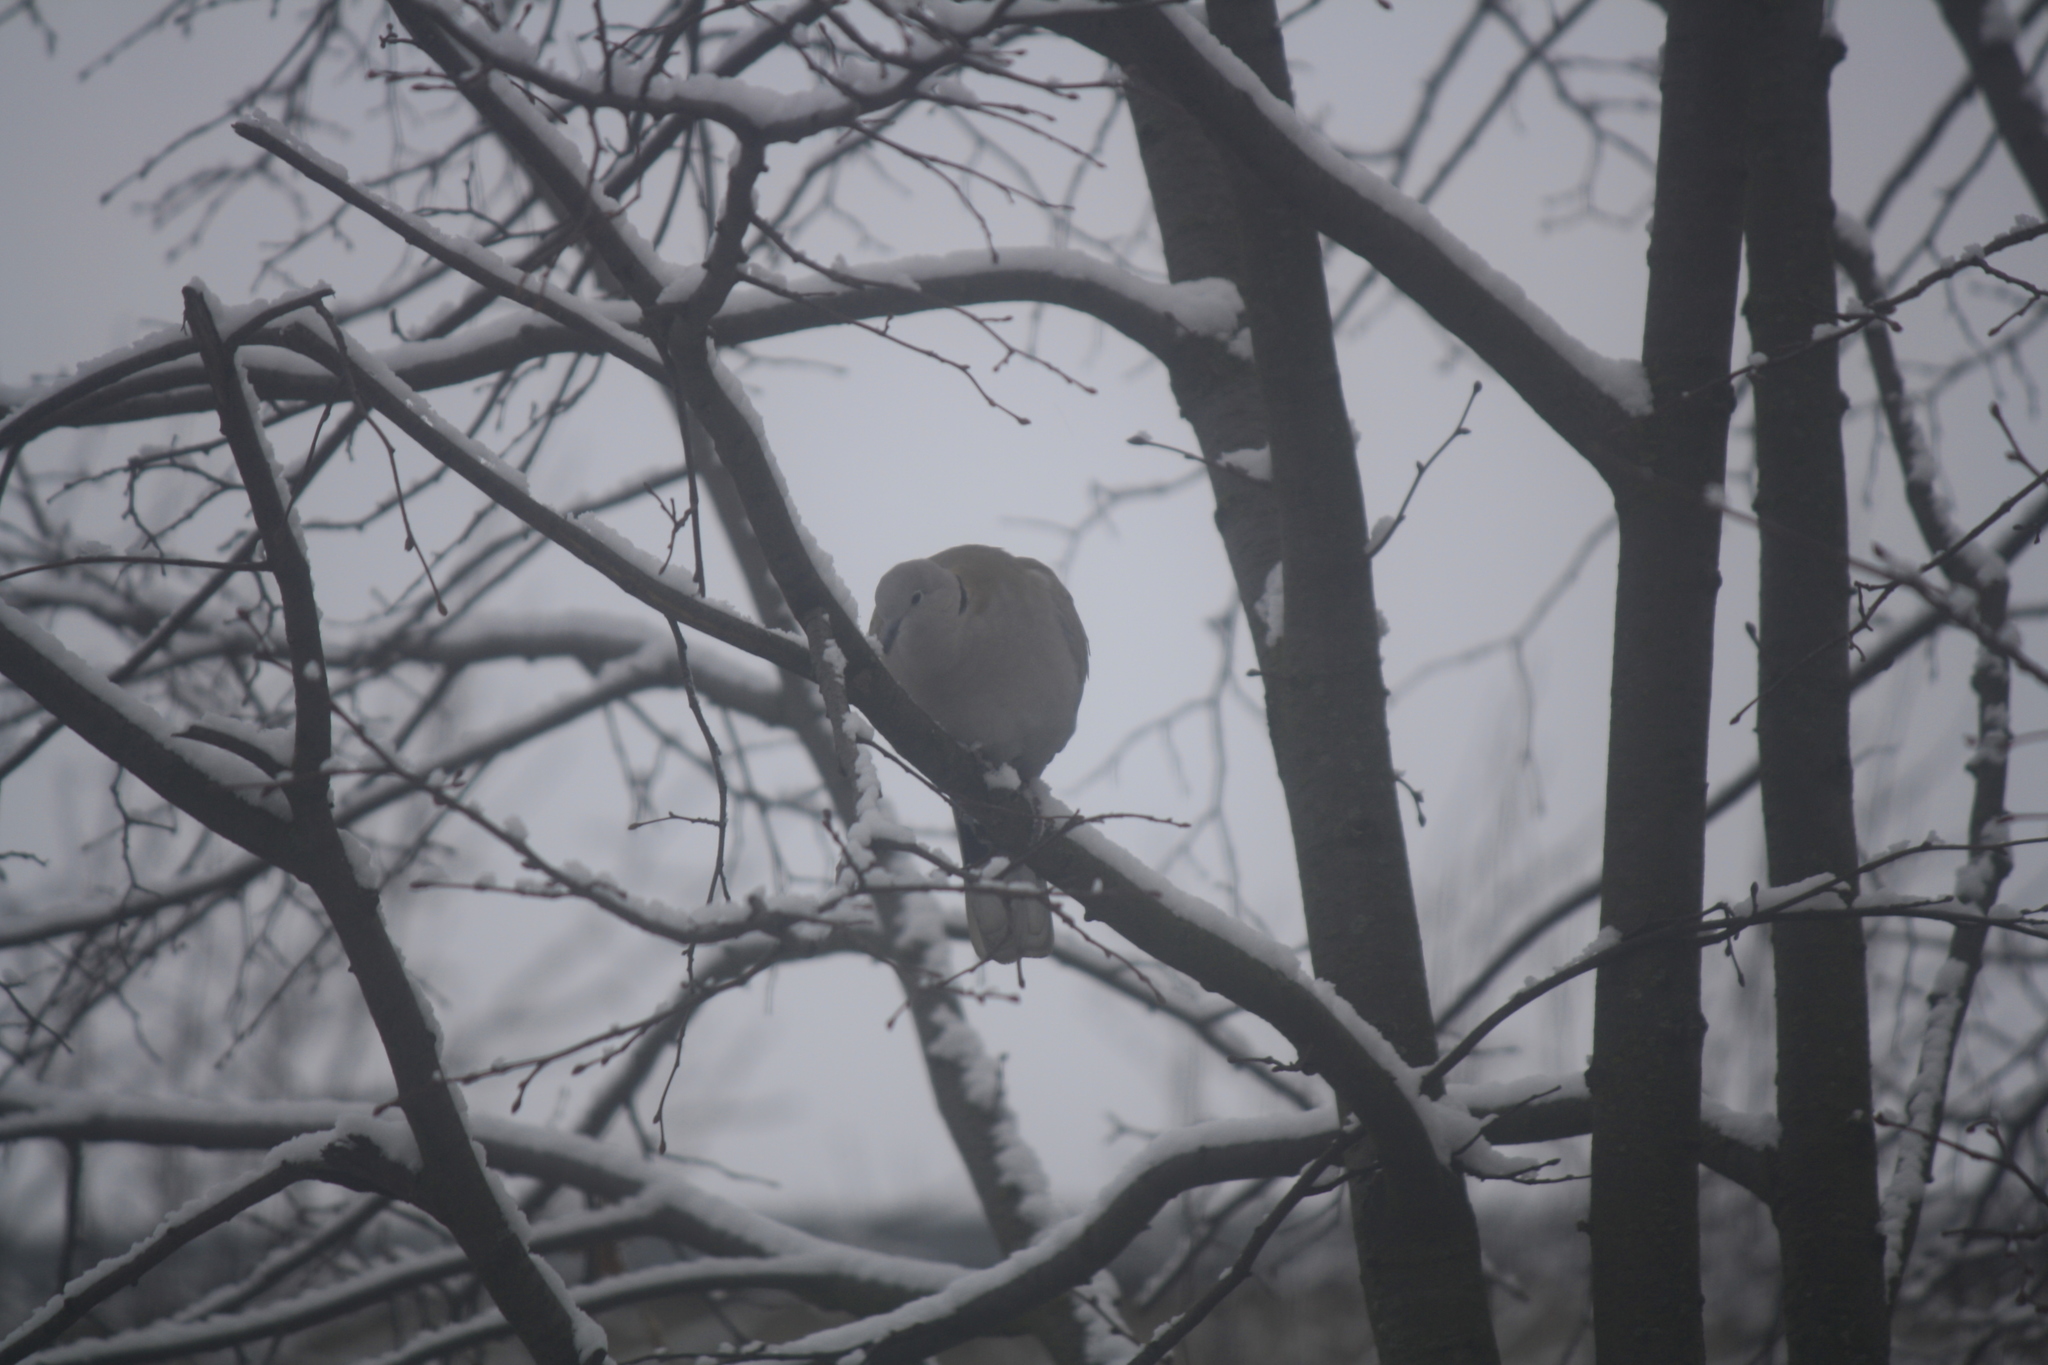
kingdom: Animalia
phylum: Chordata
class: Aves
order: Columbiformes
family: Columbidae
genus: Streptopelia
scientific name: Streptopelia decaocto
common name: Eurasian collared dove
